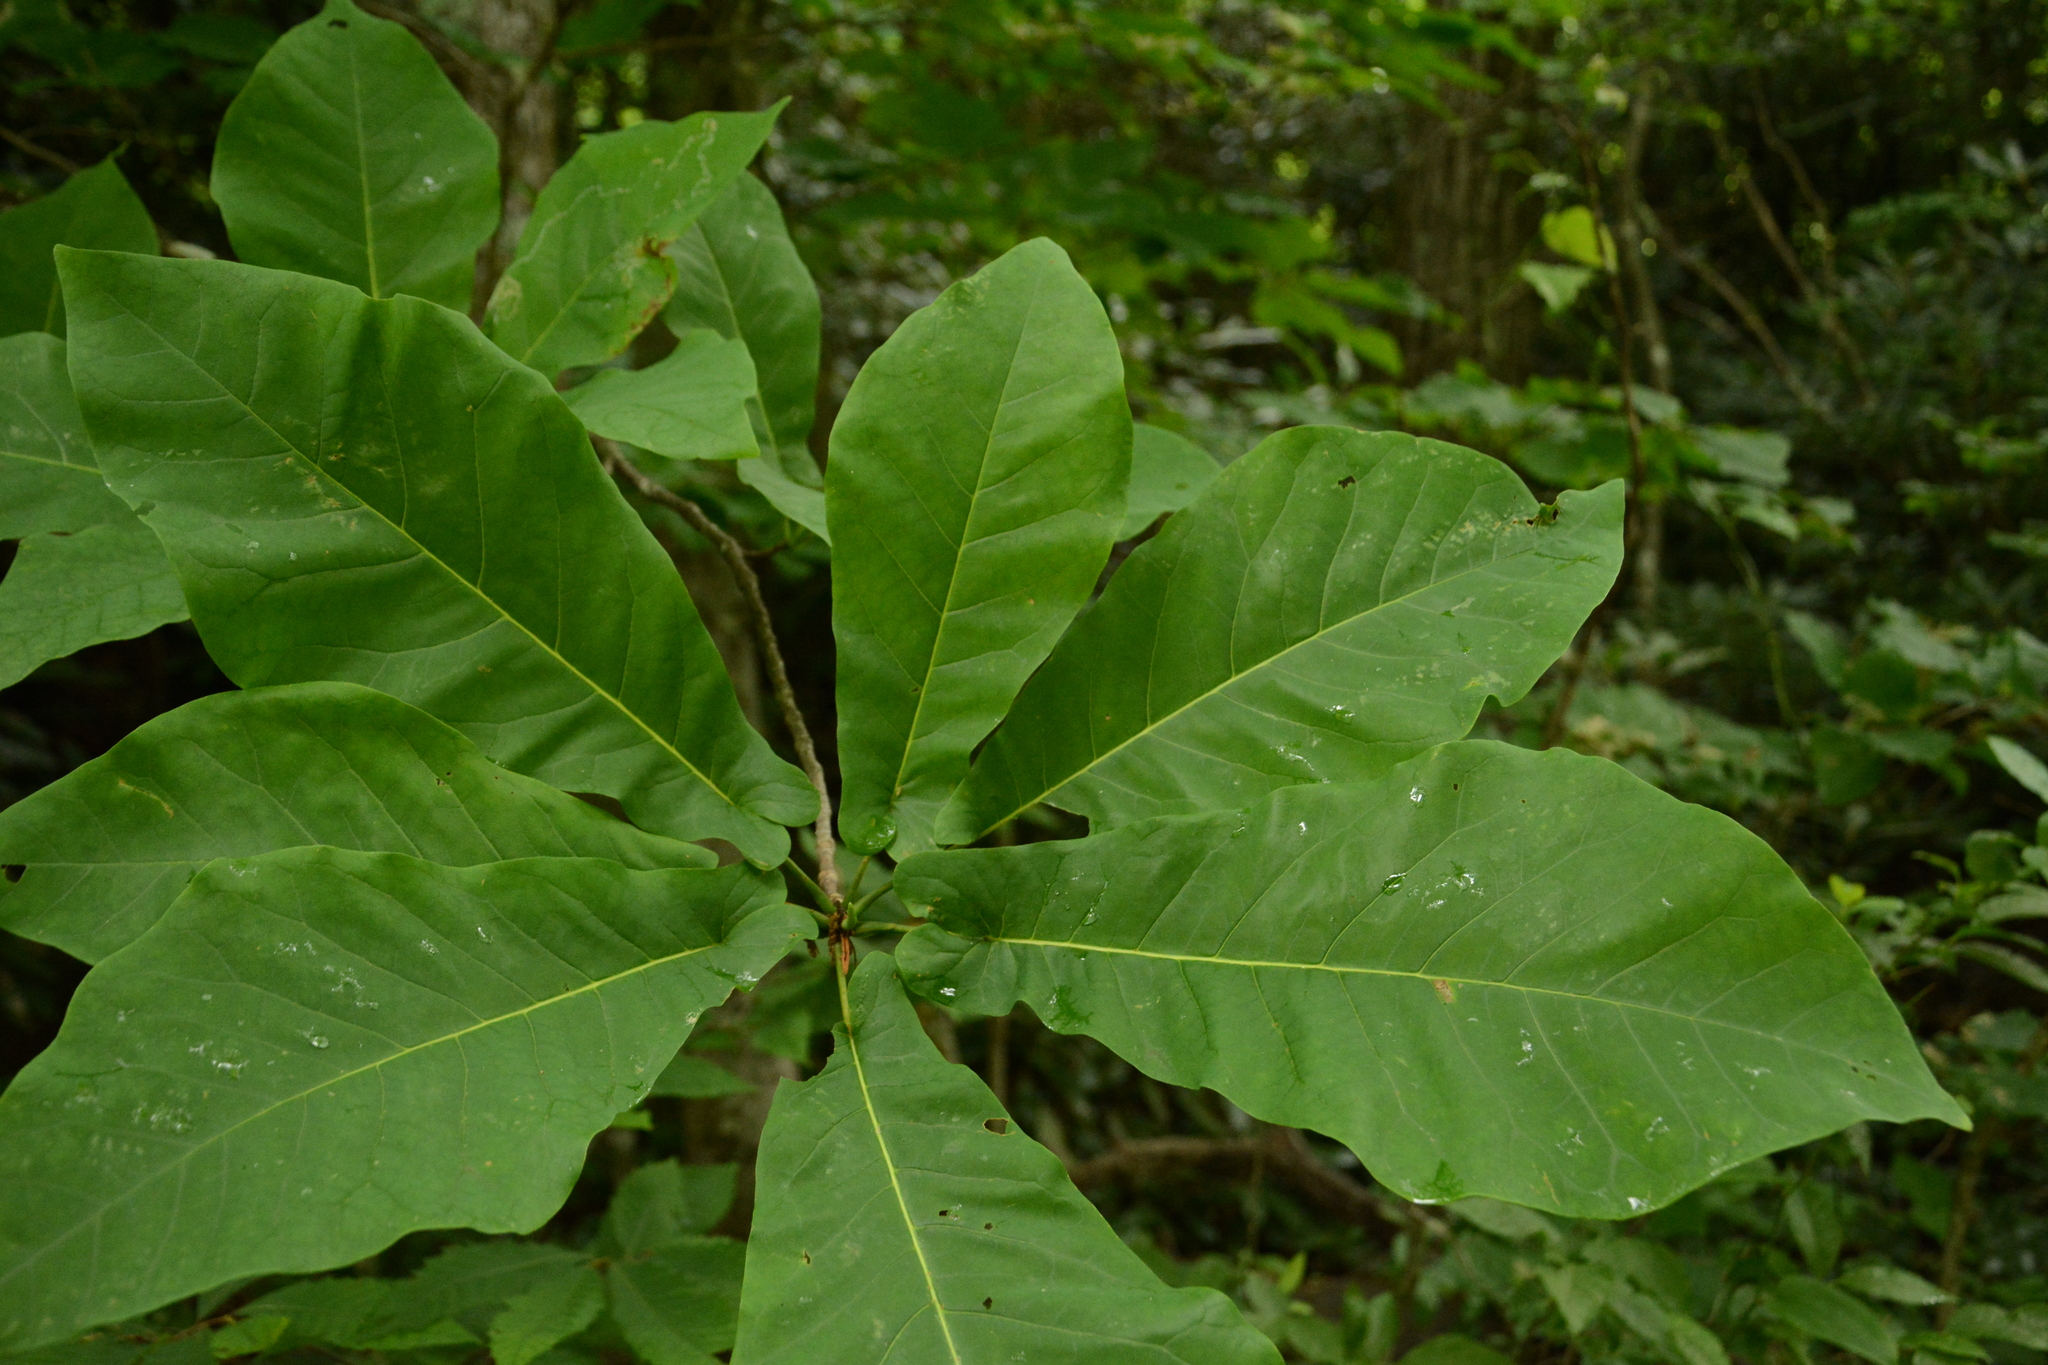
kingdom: Plantae
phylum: Tracheophyta
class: Magnoliopsida
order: Magnoliales
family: Magnoliaceae
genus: Magnolia
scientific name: Magnolia fraseri
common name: Fraser's magnolia
